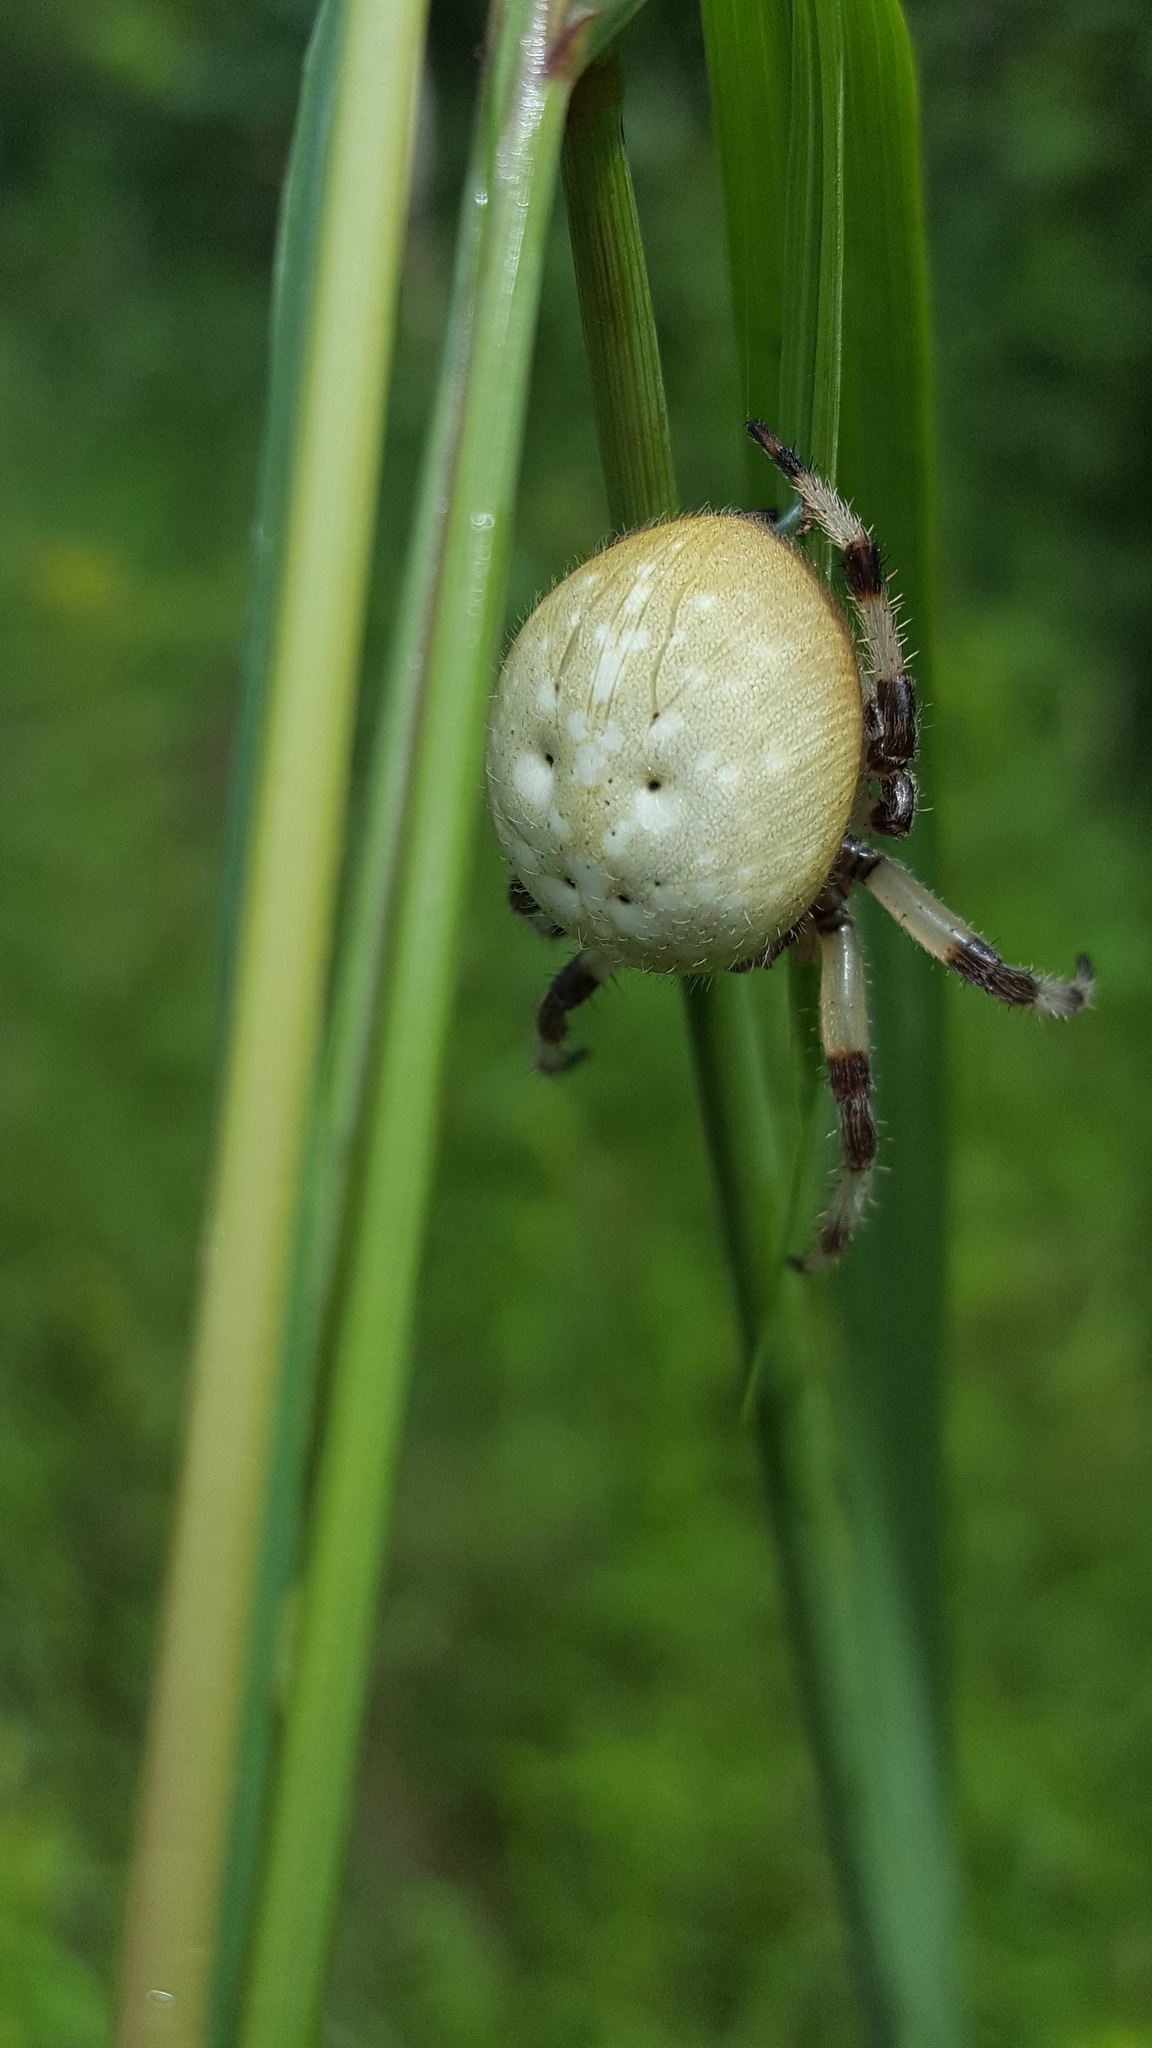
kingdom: Animalia
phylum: Arthropoda
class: Arachnida
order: Araneae
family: Araneidae
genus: Araneus
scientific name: Araneus trifolium
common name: Shamrock orbweaver
